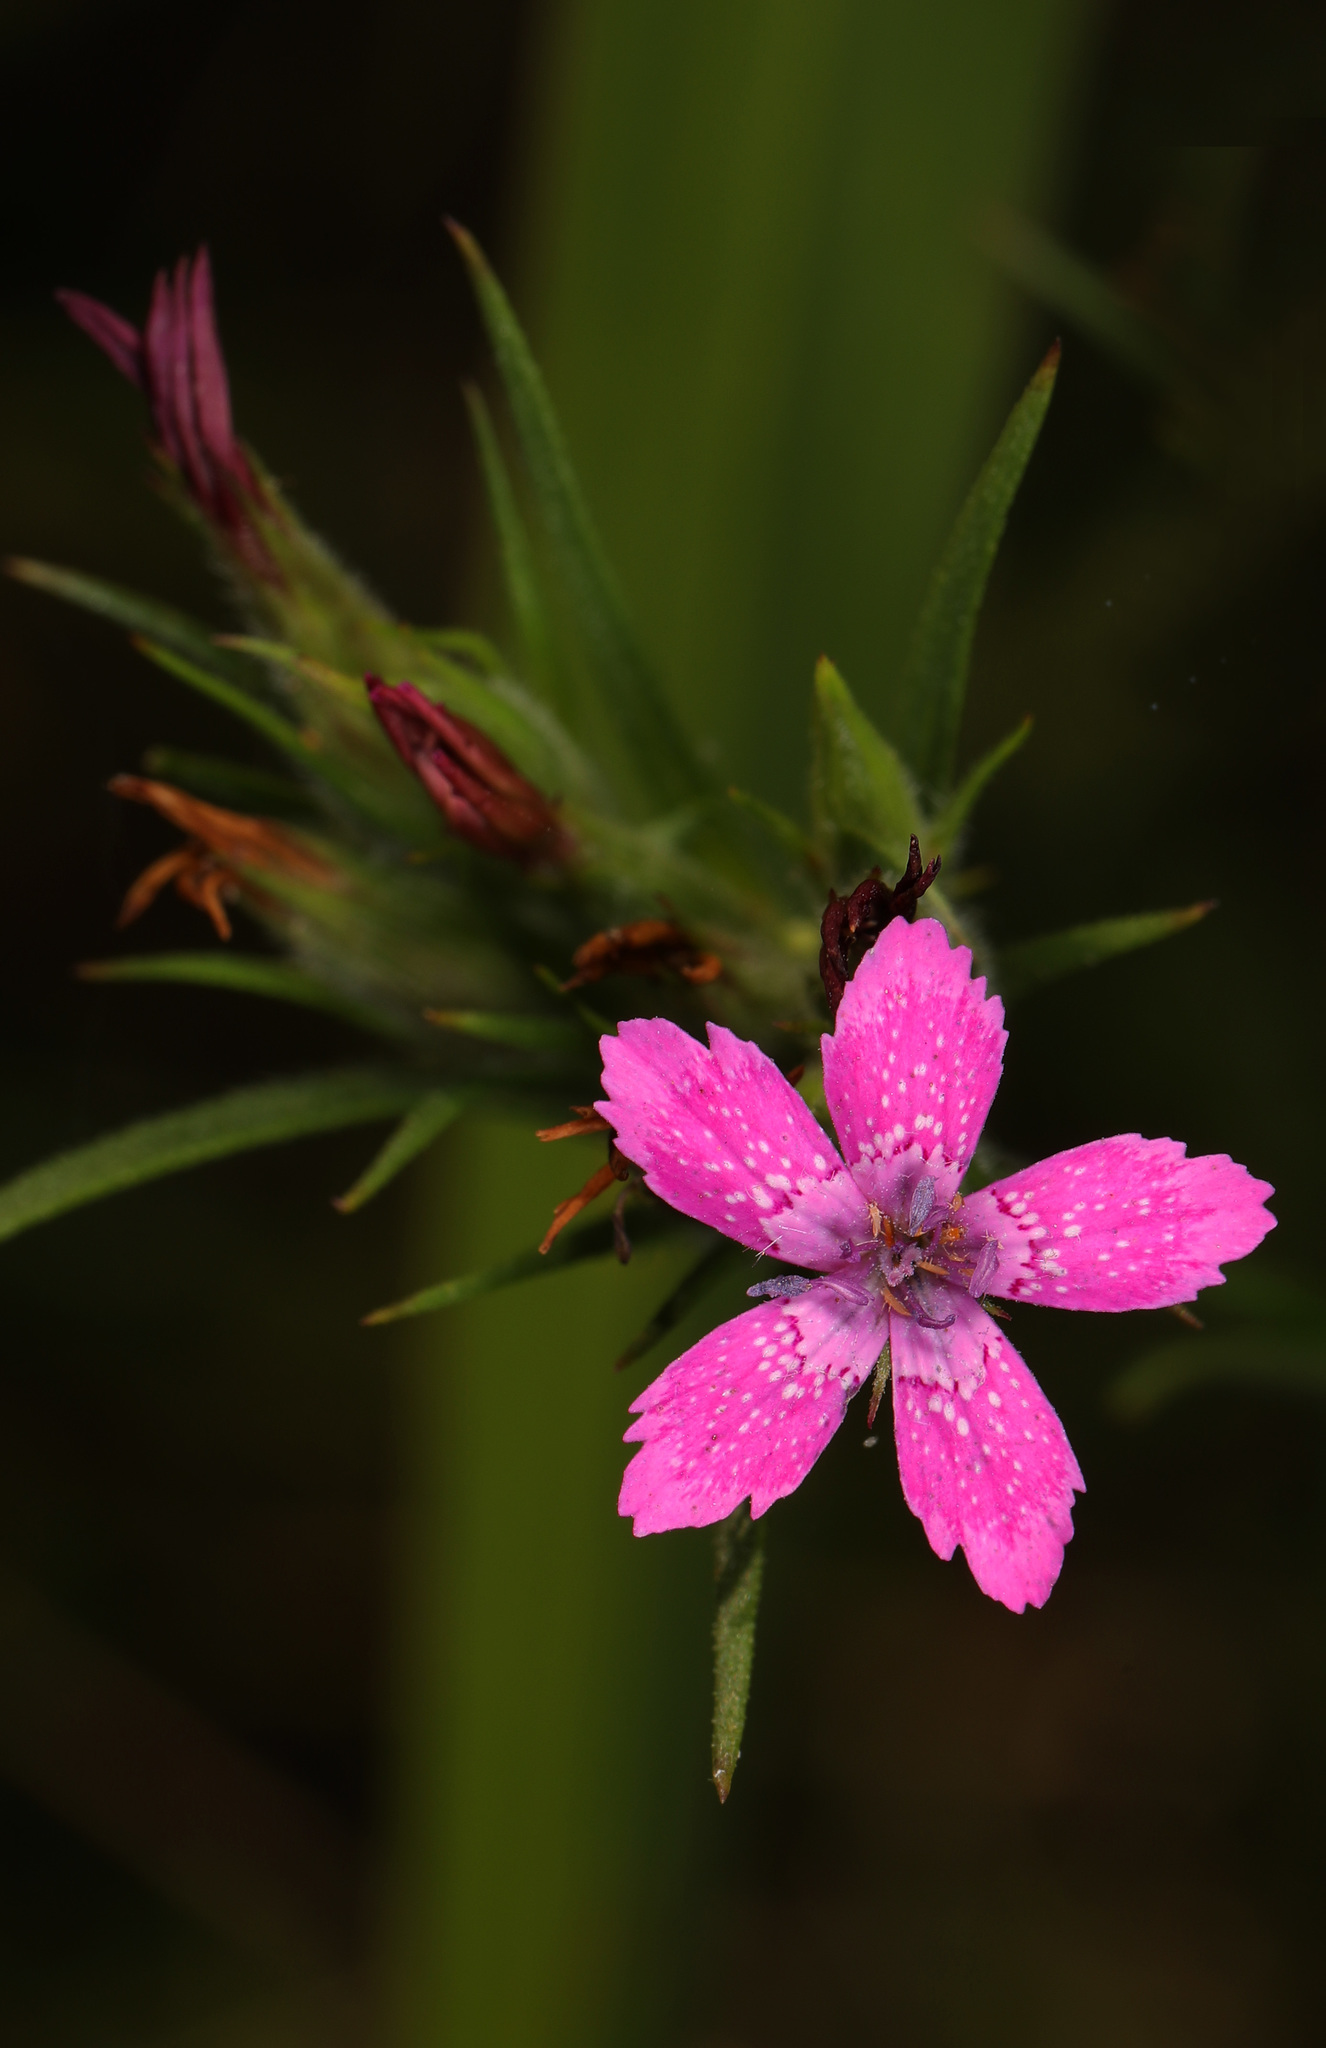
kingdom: Plantae
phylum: Tracheophyta
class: Magnoliopsida
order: Caryophyllales
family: Caryophyllaceae
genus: Dianthus
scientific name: Dianthus armeria
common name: Deptford pink
